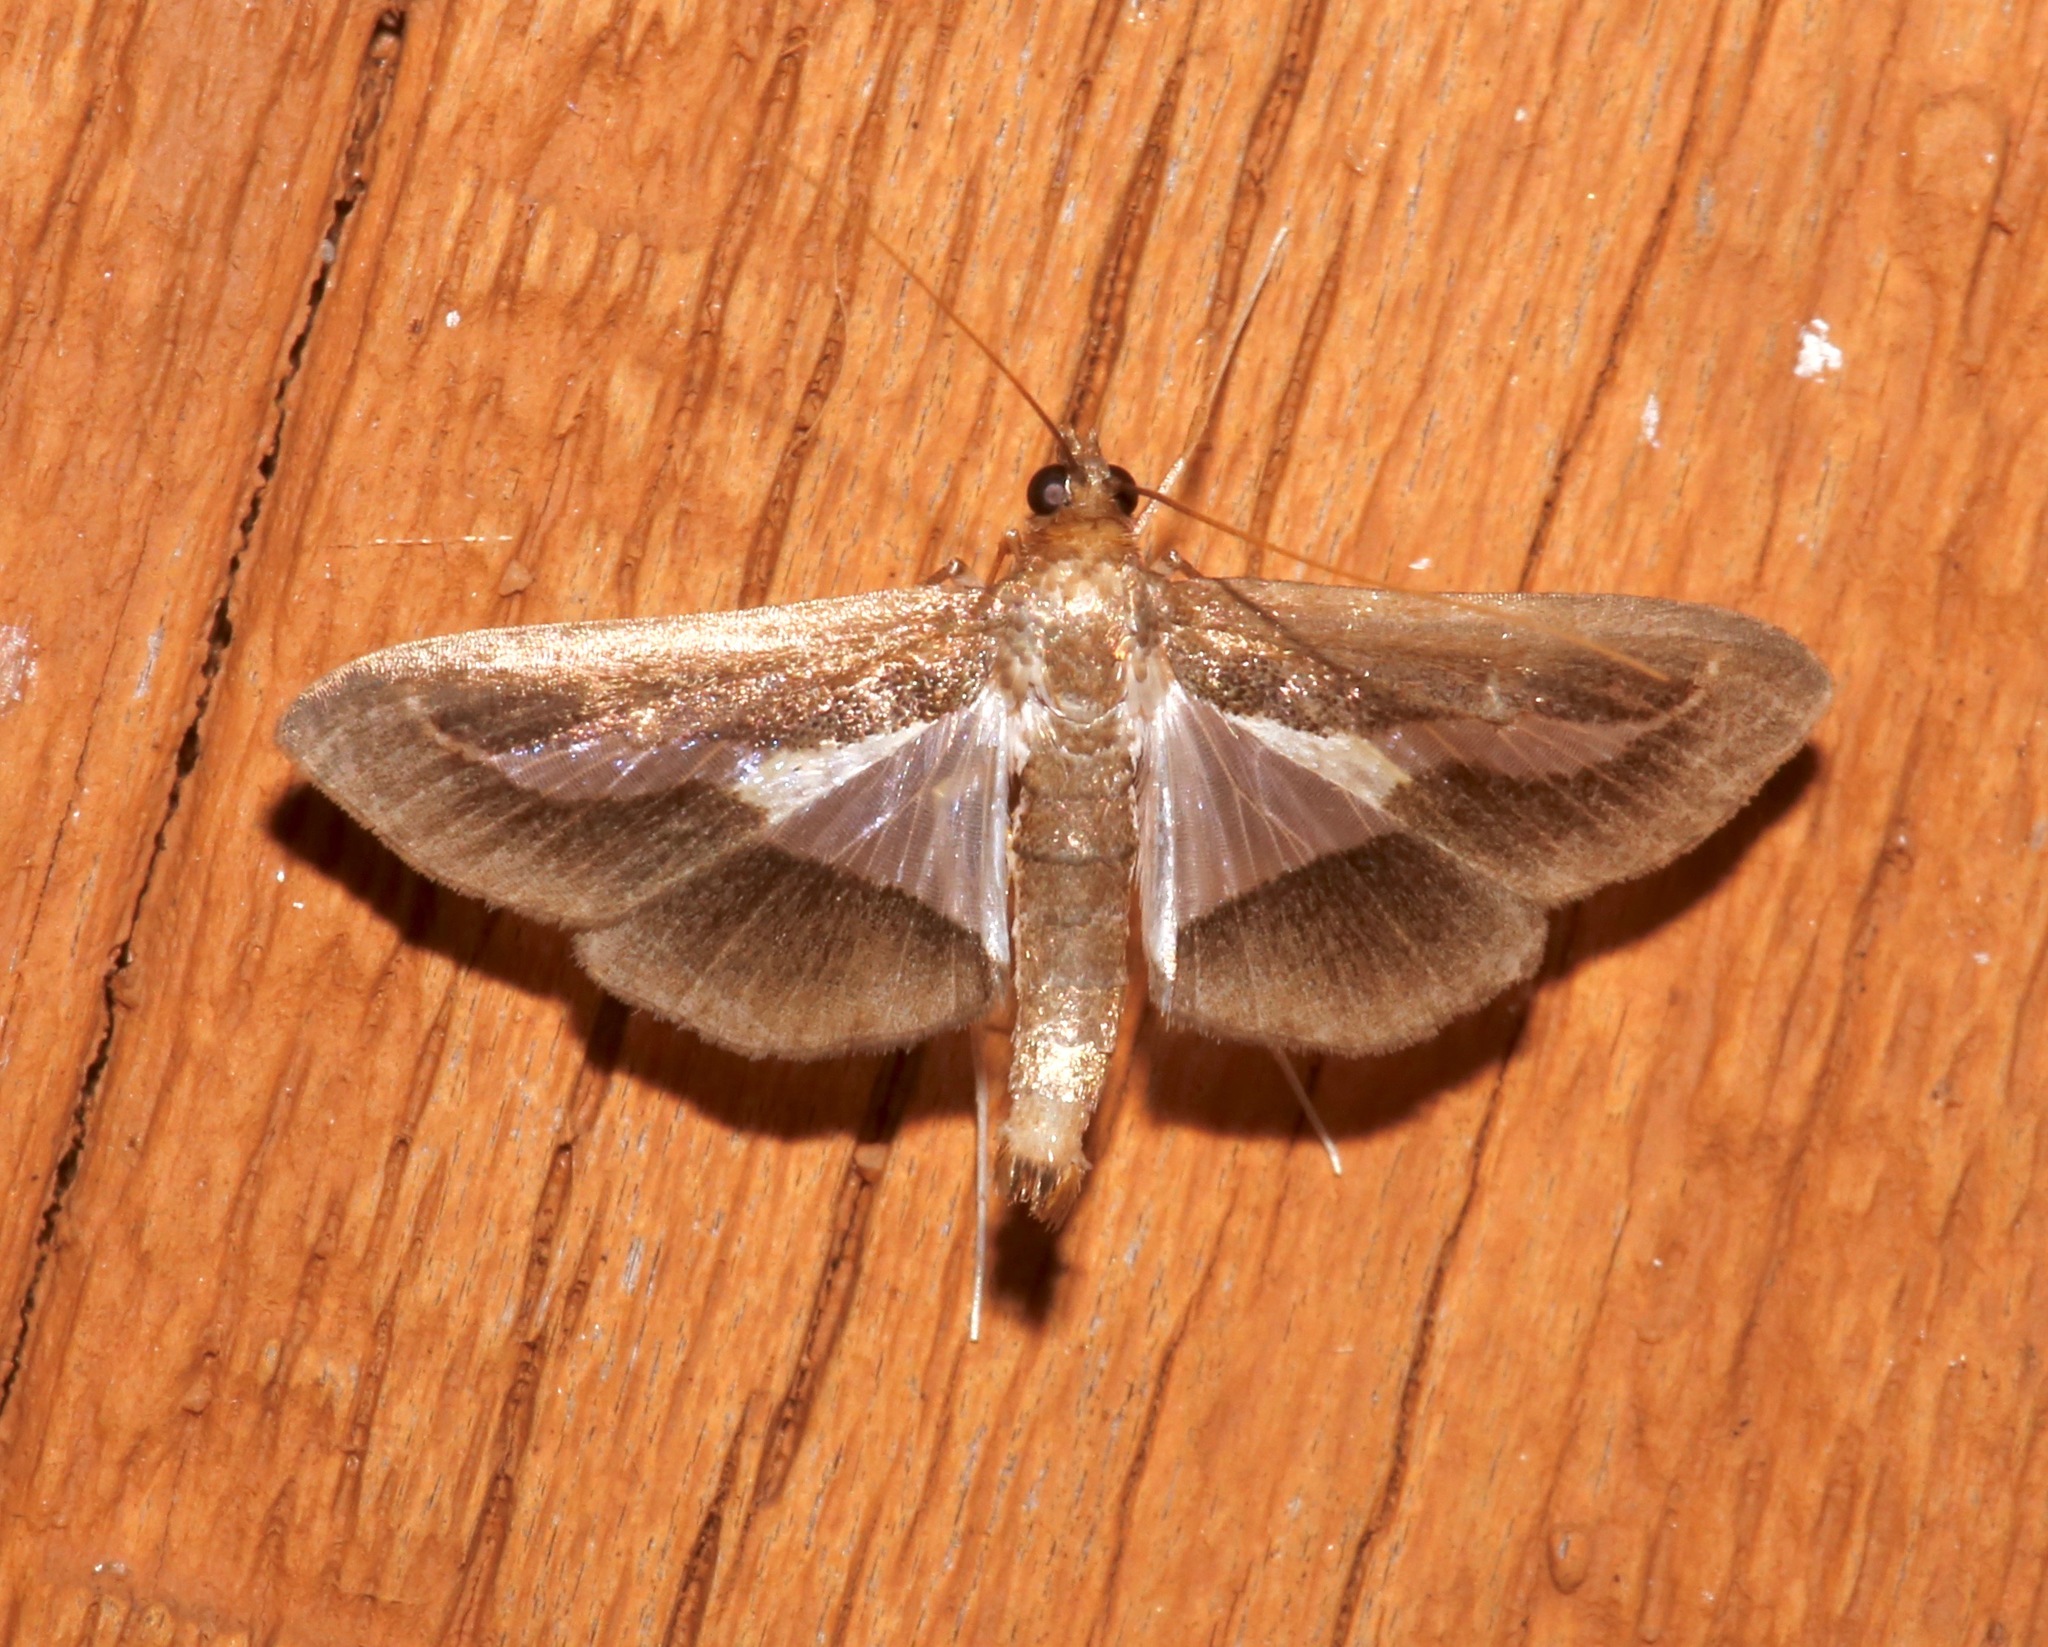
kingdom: Animalia
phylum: Arthropoda
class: Insecta
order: Lepidoptera
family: Crambidae
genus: Diaphania
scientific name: Diaphania modialis
